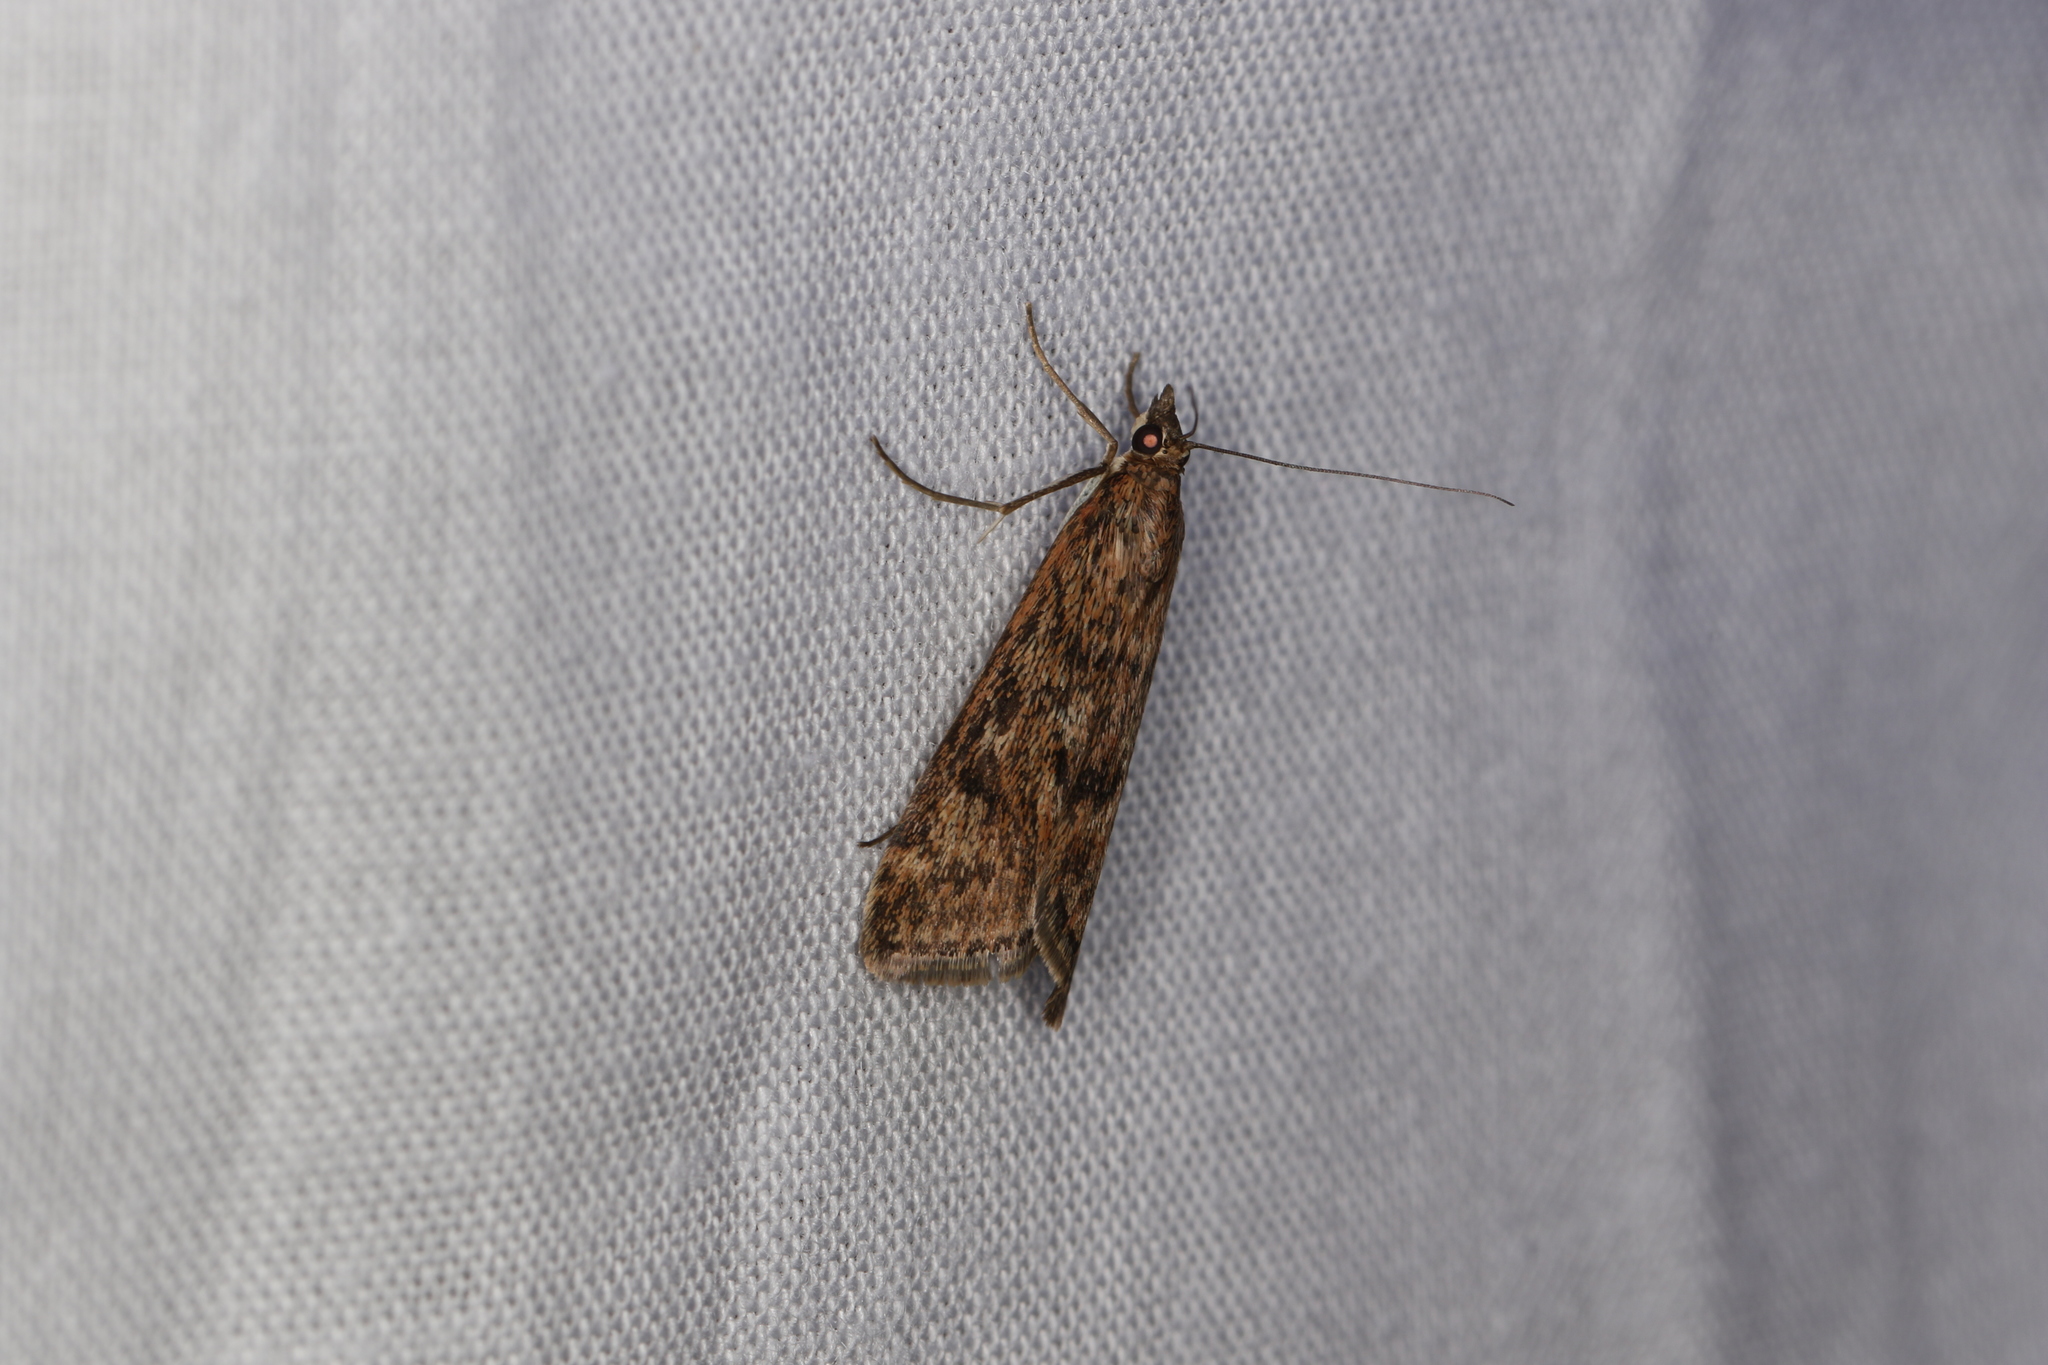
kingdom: Animalia
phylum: Arthropoda
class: Insecta
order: Lepidoptera
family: Crambidae
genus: Achyra
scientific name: Achyra affinitalis
